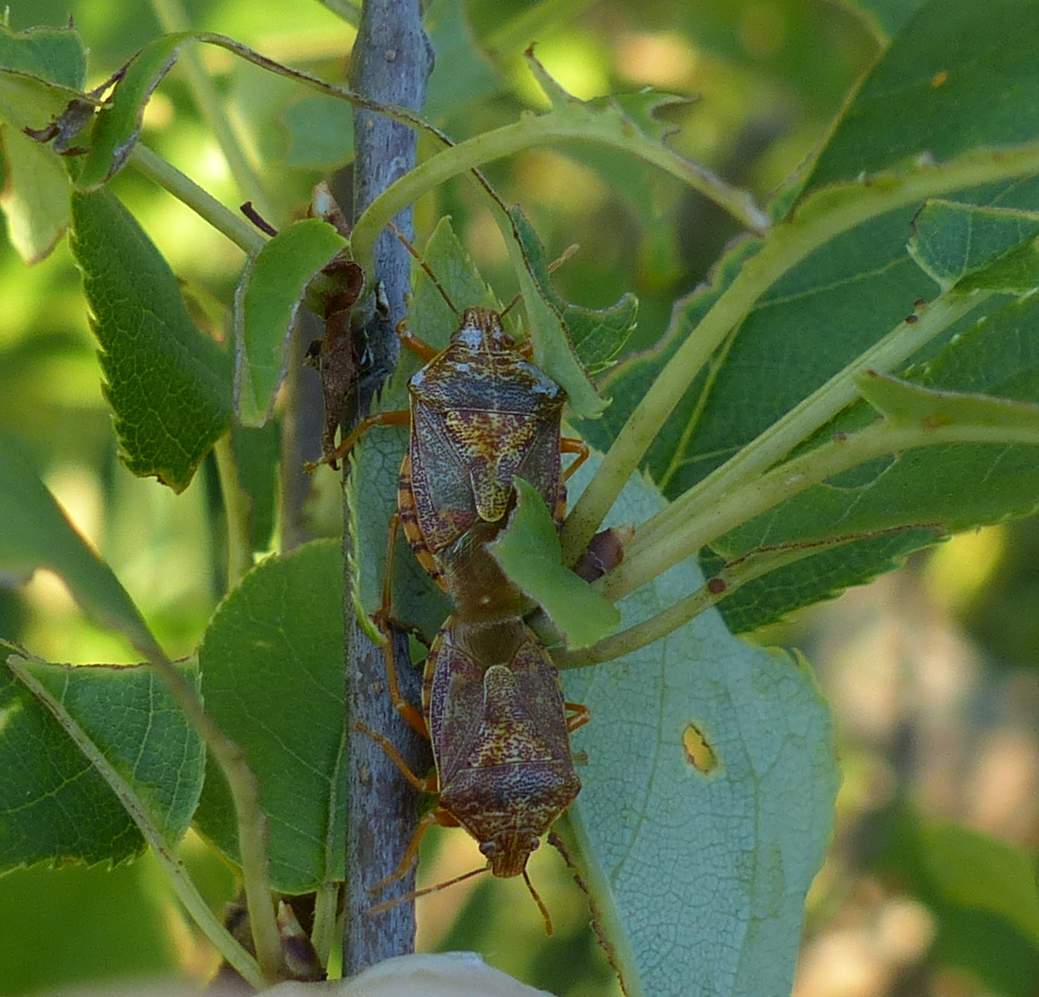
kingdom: Animalia
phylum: Arthropoda
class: Insecta
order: Hemiptera
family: Pentatomidae
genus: Podisus
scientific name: Podisus placidus
